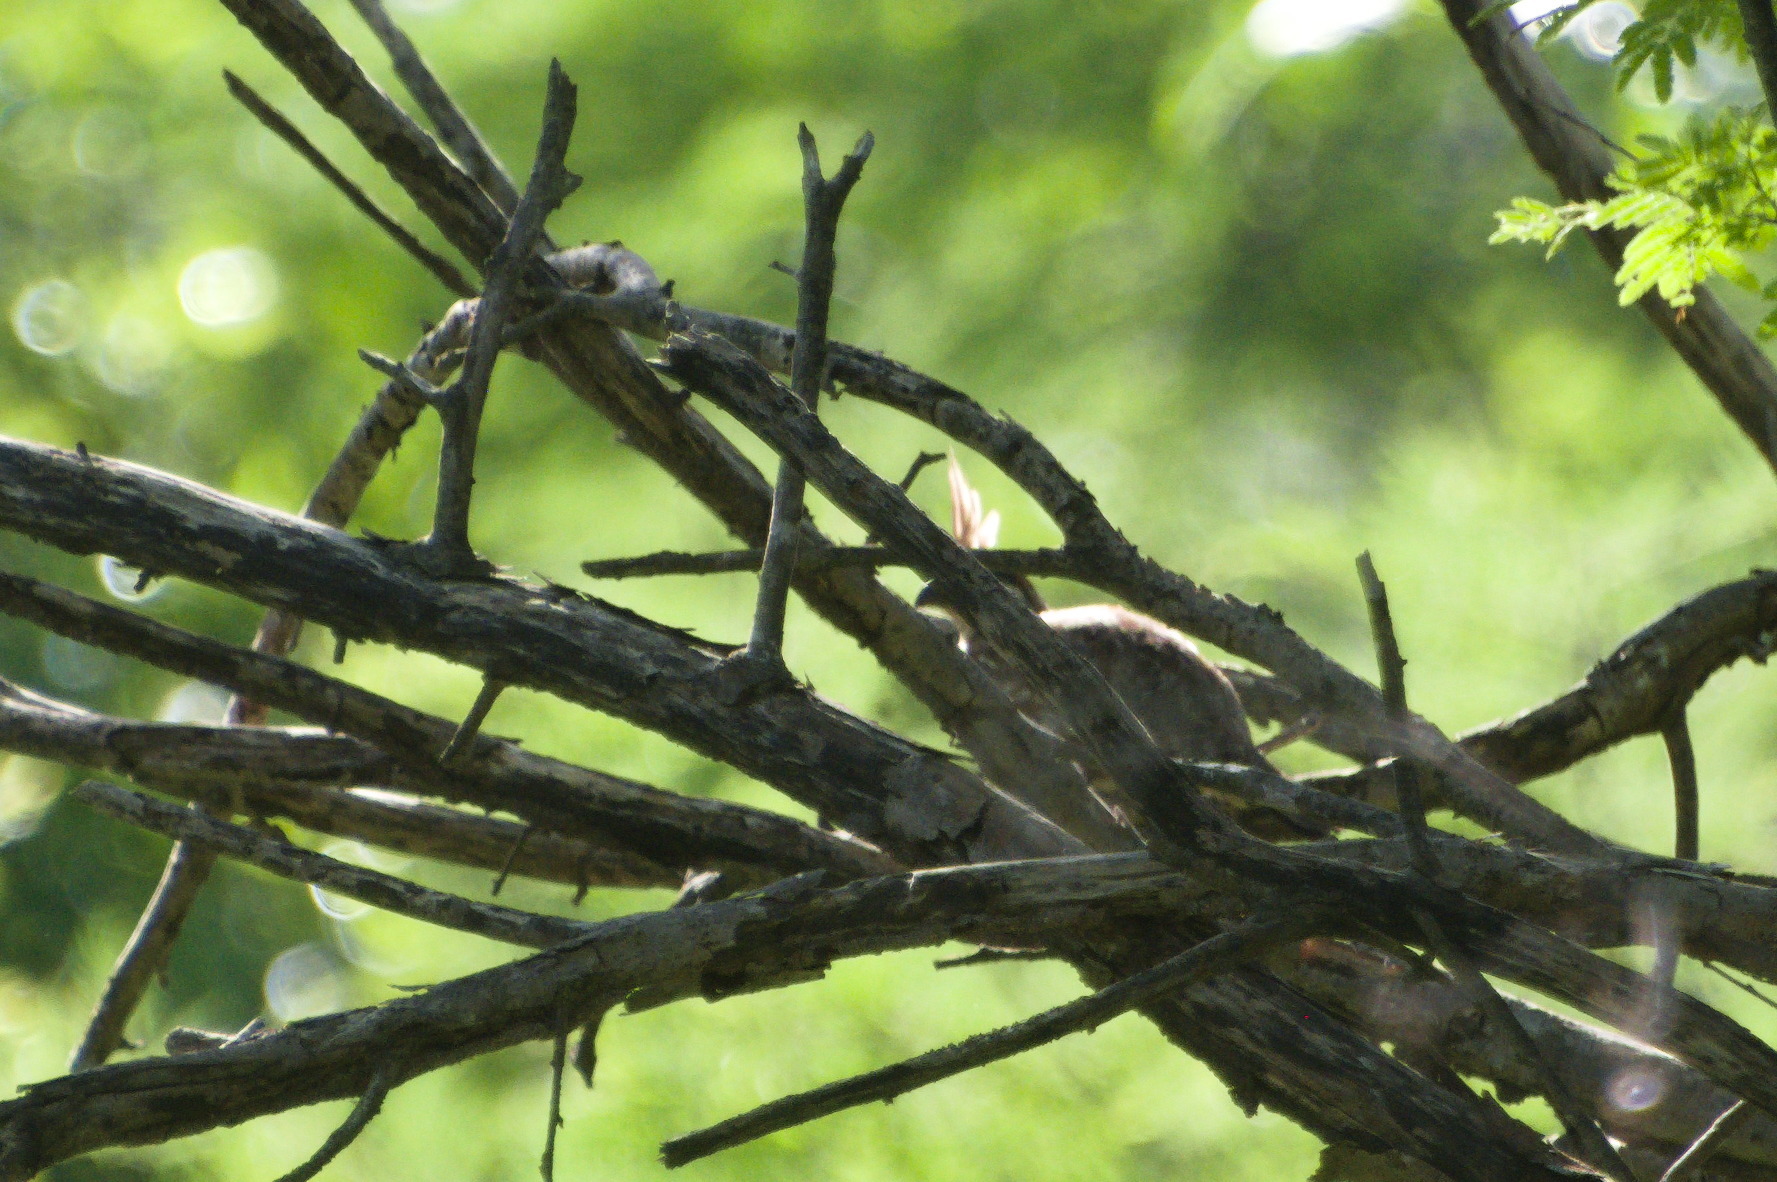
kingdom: Animalia
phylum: Chordata
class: Aves
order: Galliformes
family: Odontophoridae
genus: Colinus
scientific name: Colinus cristatus
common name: Crested bobwhite
